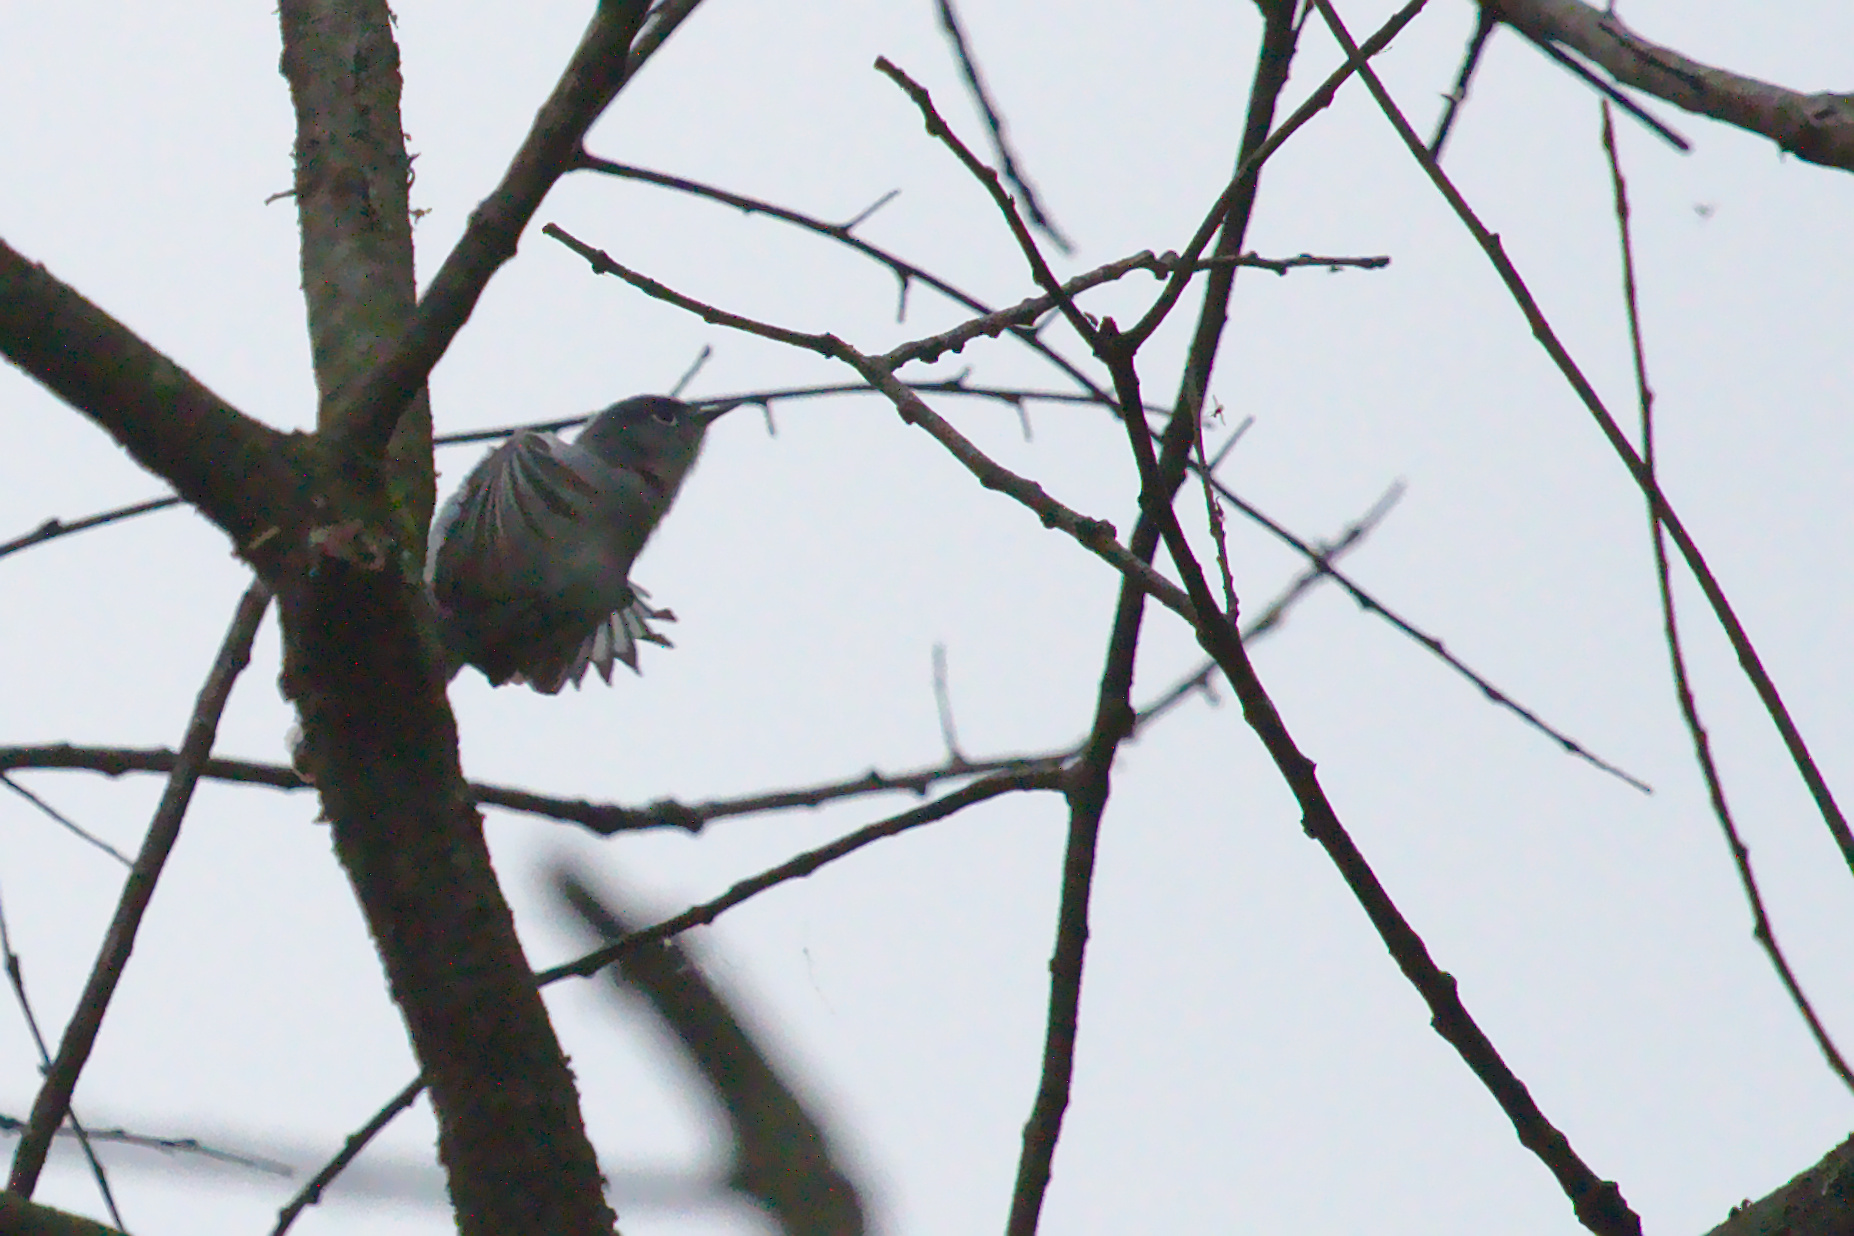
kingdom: Animalia
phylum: Chordata
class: Aves
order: Passeriformes
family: Polioptilidae
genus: Polioptila
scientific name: Polioptila caerulea
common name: Blue-gray gnatcatcher
